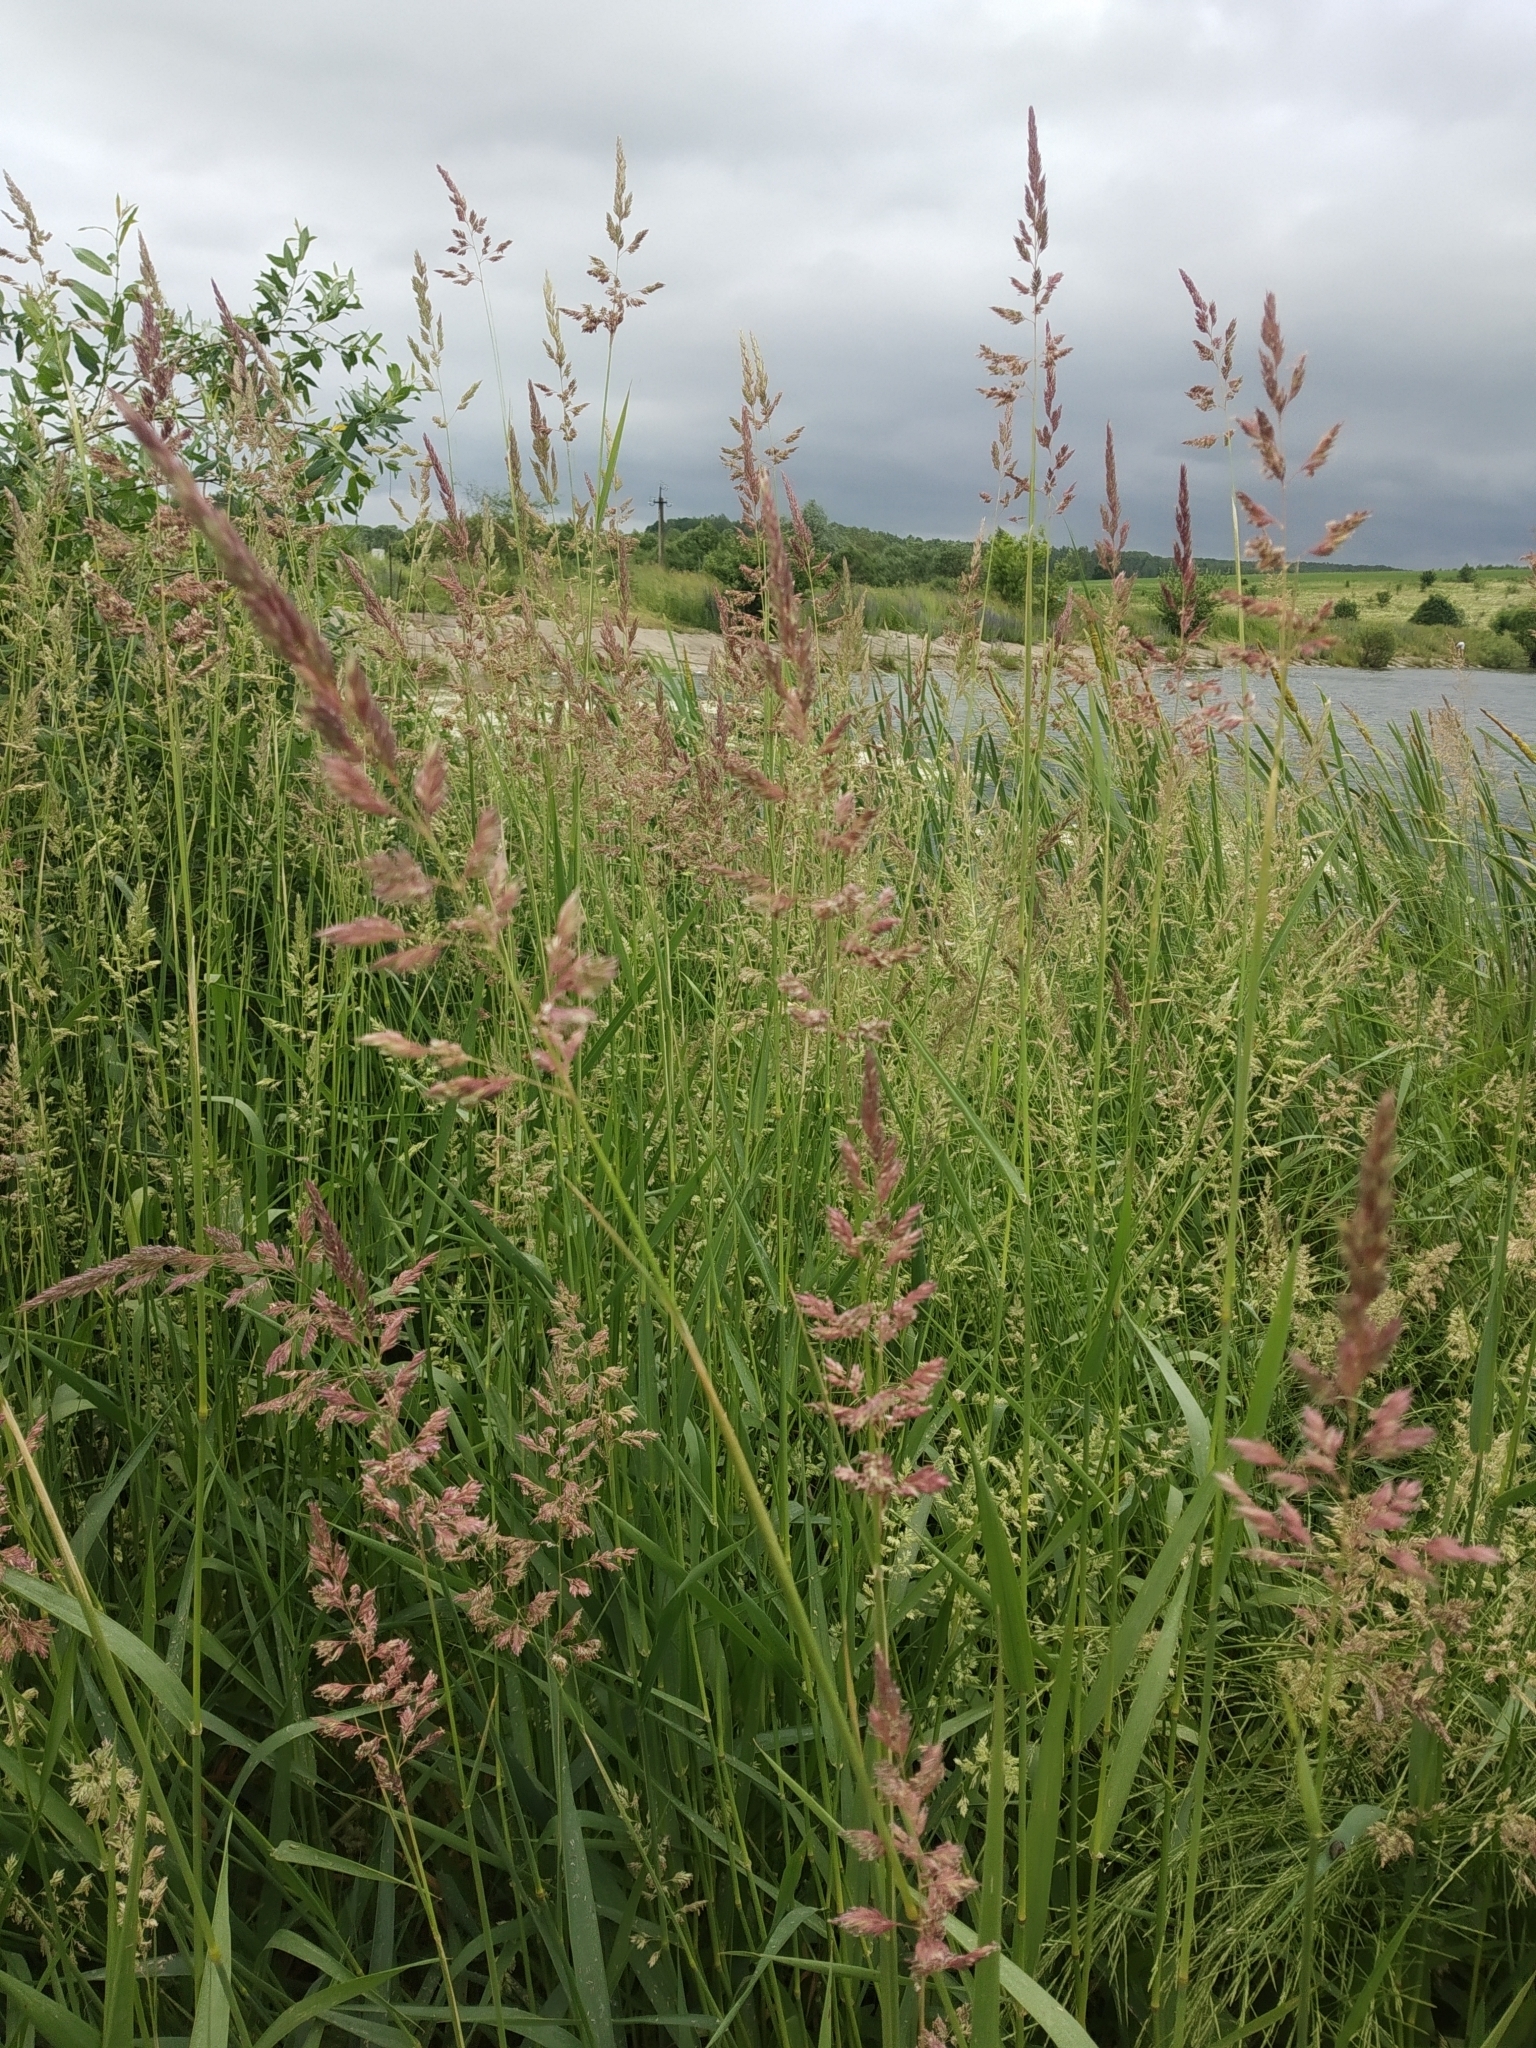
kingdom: Plantae
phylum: Tracheophyta
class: Liliopsida
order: Poales
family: Poaceae
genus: Phalaris
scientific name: Phalaris arundinacea
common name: Reed canary-grass
